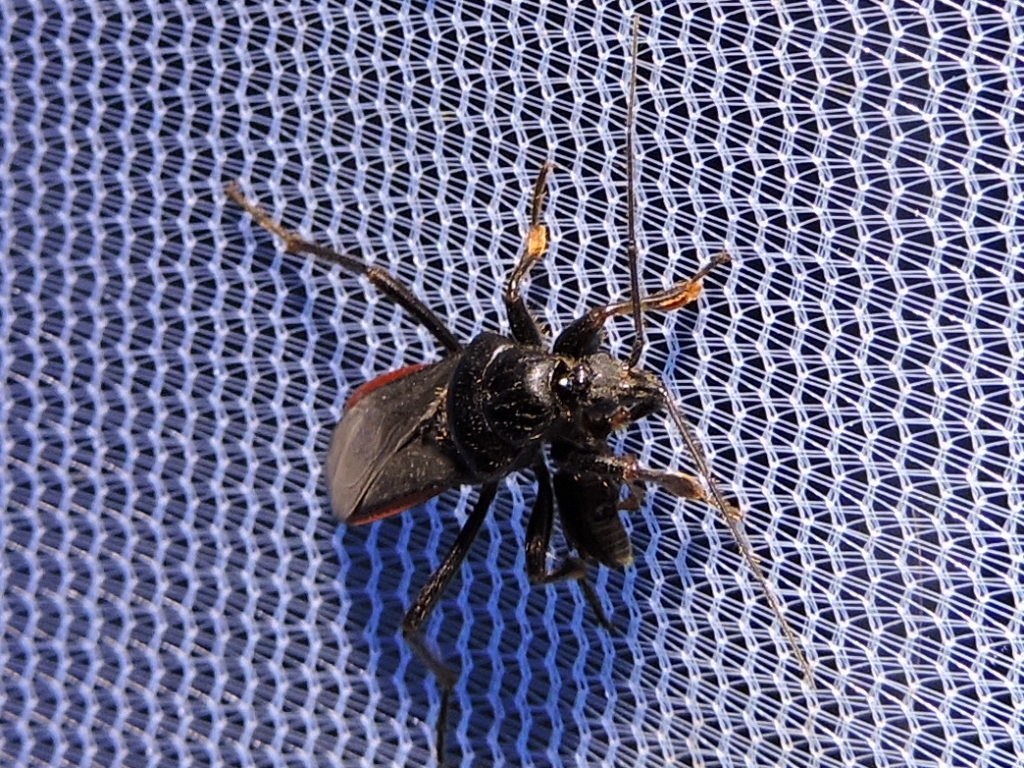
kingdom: Animalia
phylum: Arthropoda
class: Insecta
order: Hemiptera
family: Reduviidae
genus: Melanolestes
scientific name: Melanolestes picipes
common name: Assassin bug
